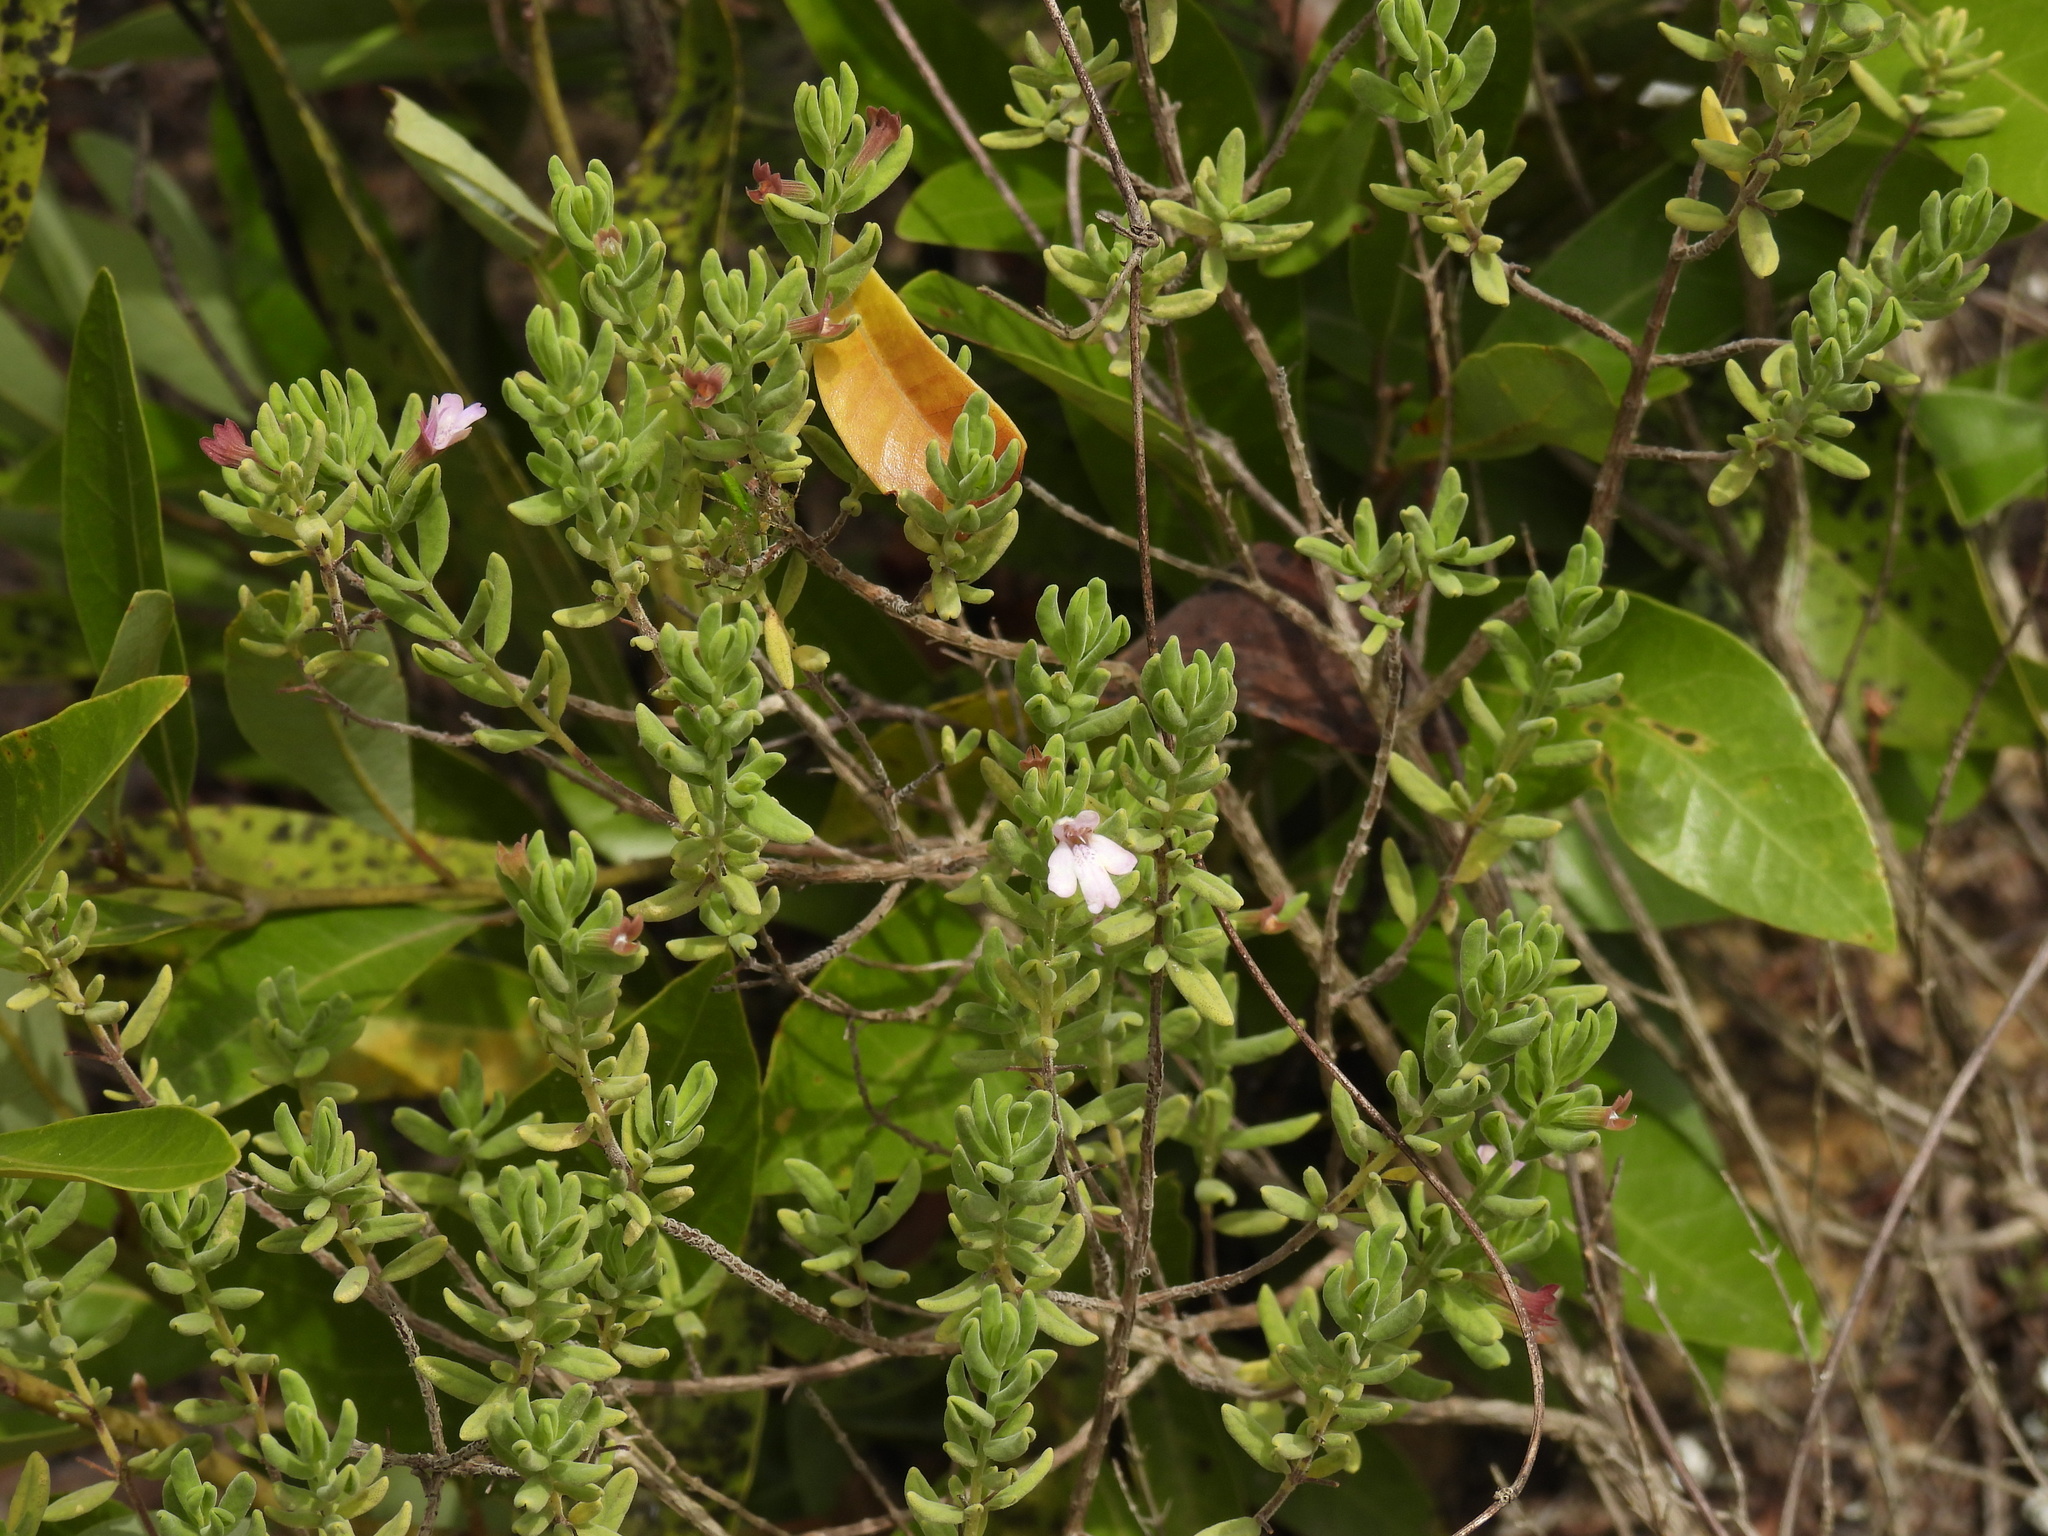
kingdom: Plantae
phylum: Tracheophyta
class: Magnoliopsida
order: Lamiales
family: Lamiaceae
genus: Clinopodium
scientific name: Clinopodium ashei
